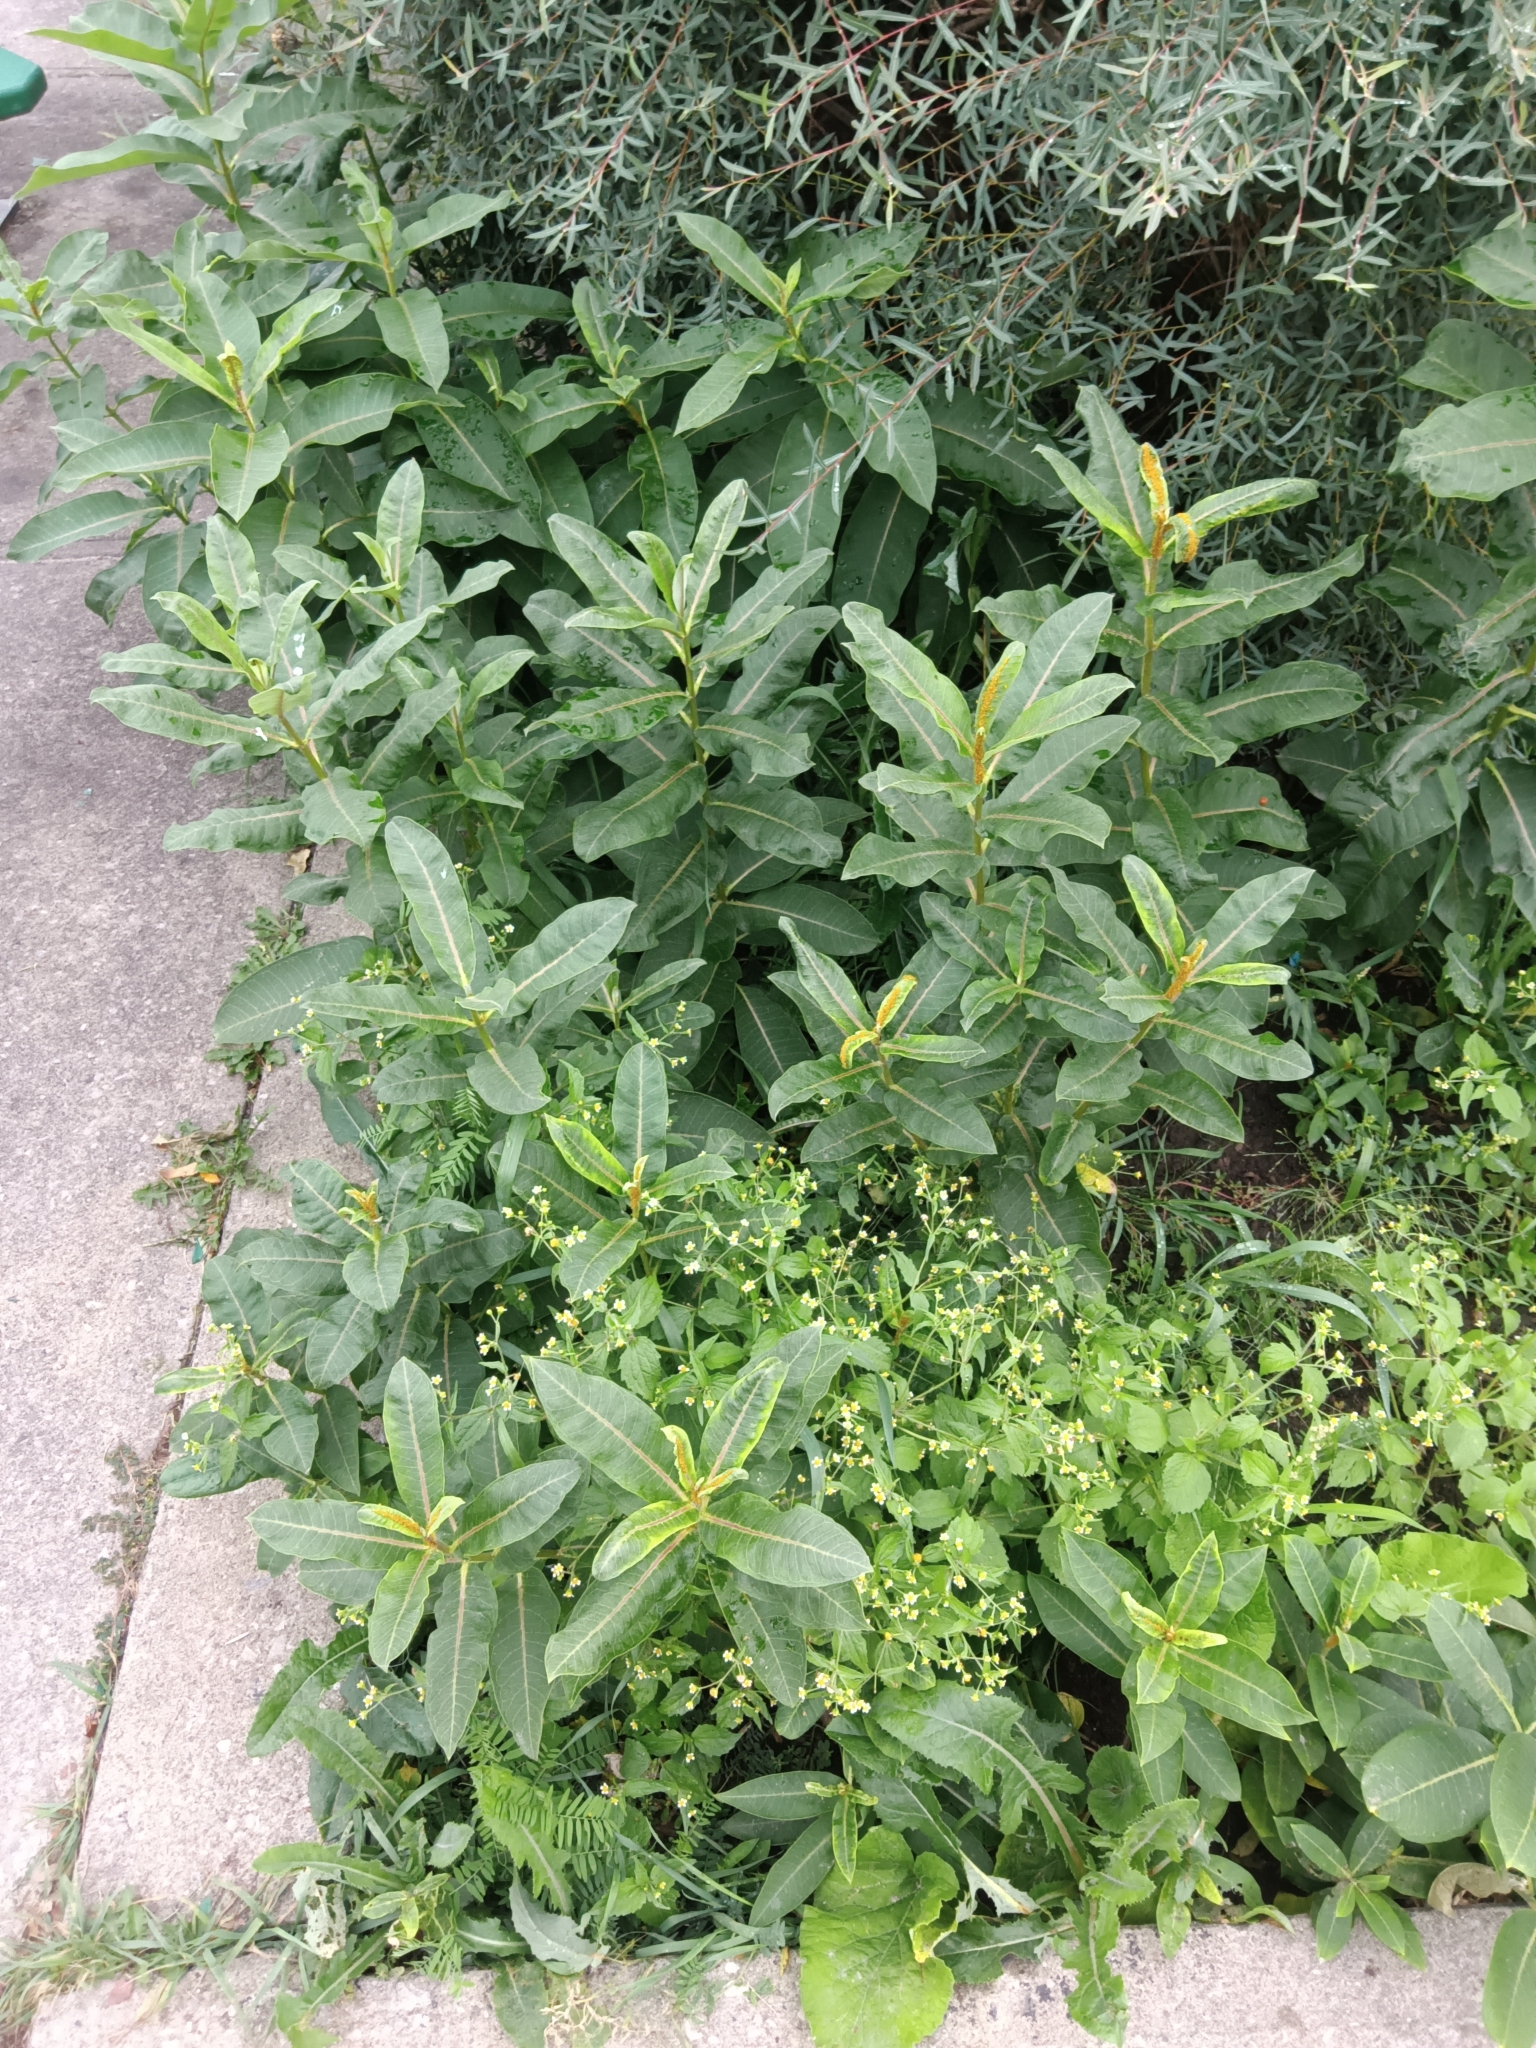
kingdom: Plantae
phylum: Tracheophyta
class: Magnoliopsida
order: Gentianales
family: Apocynaceae
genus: Asclepias
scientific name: Asclepias syriaca
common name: Common milkweed
